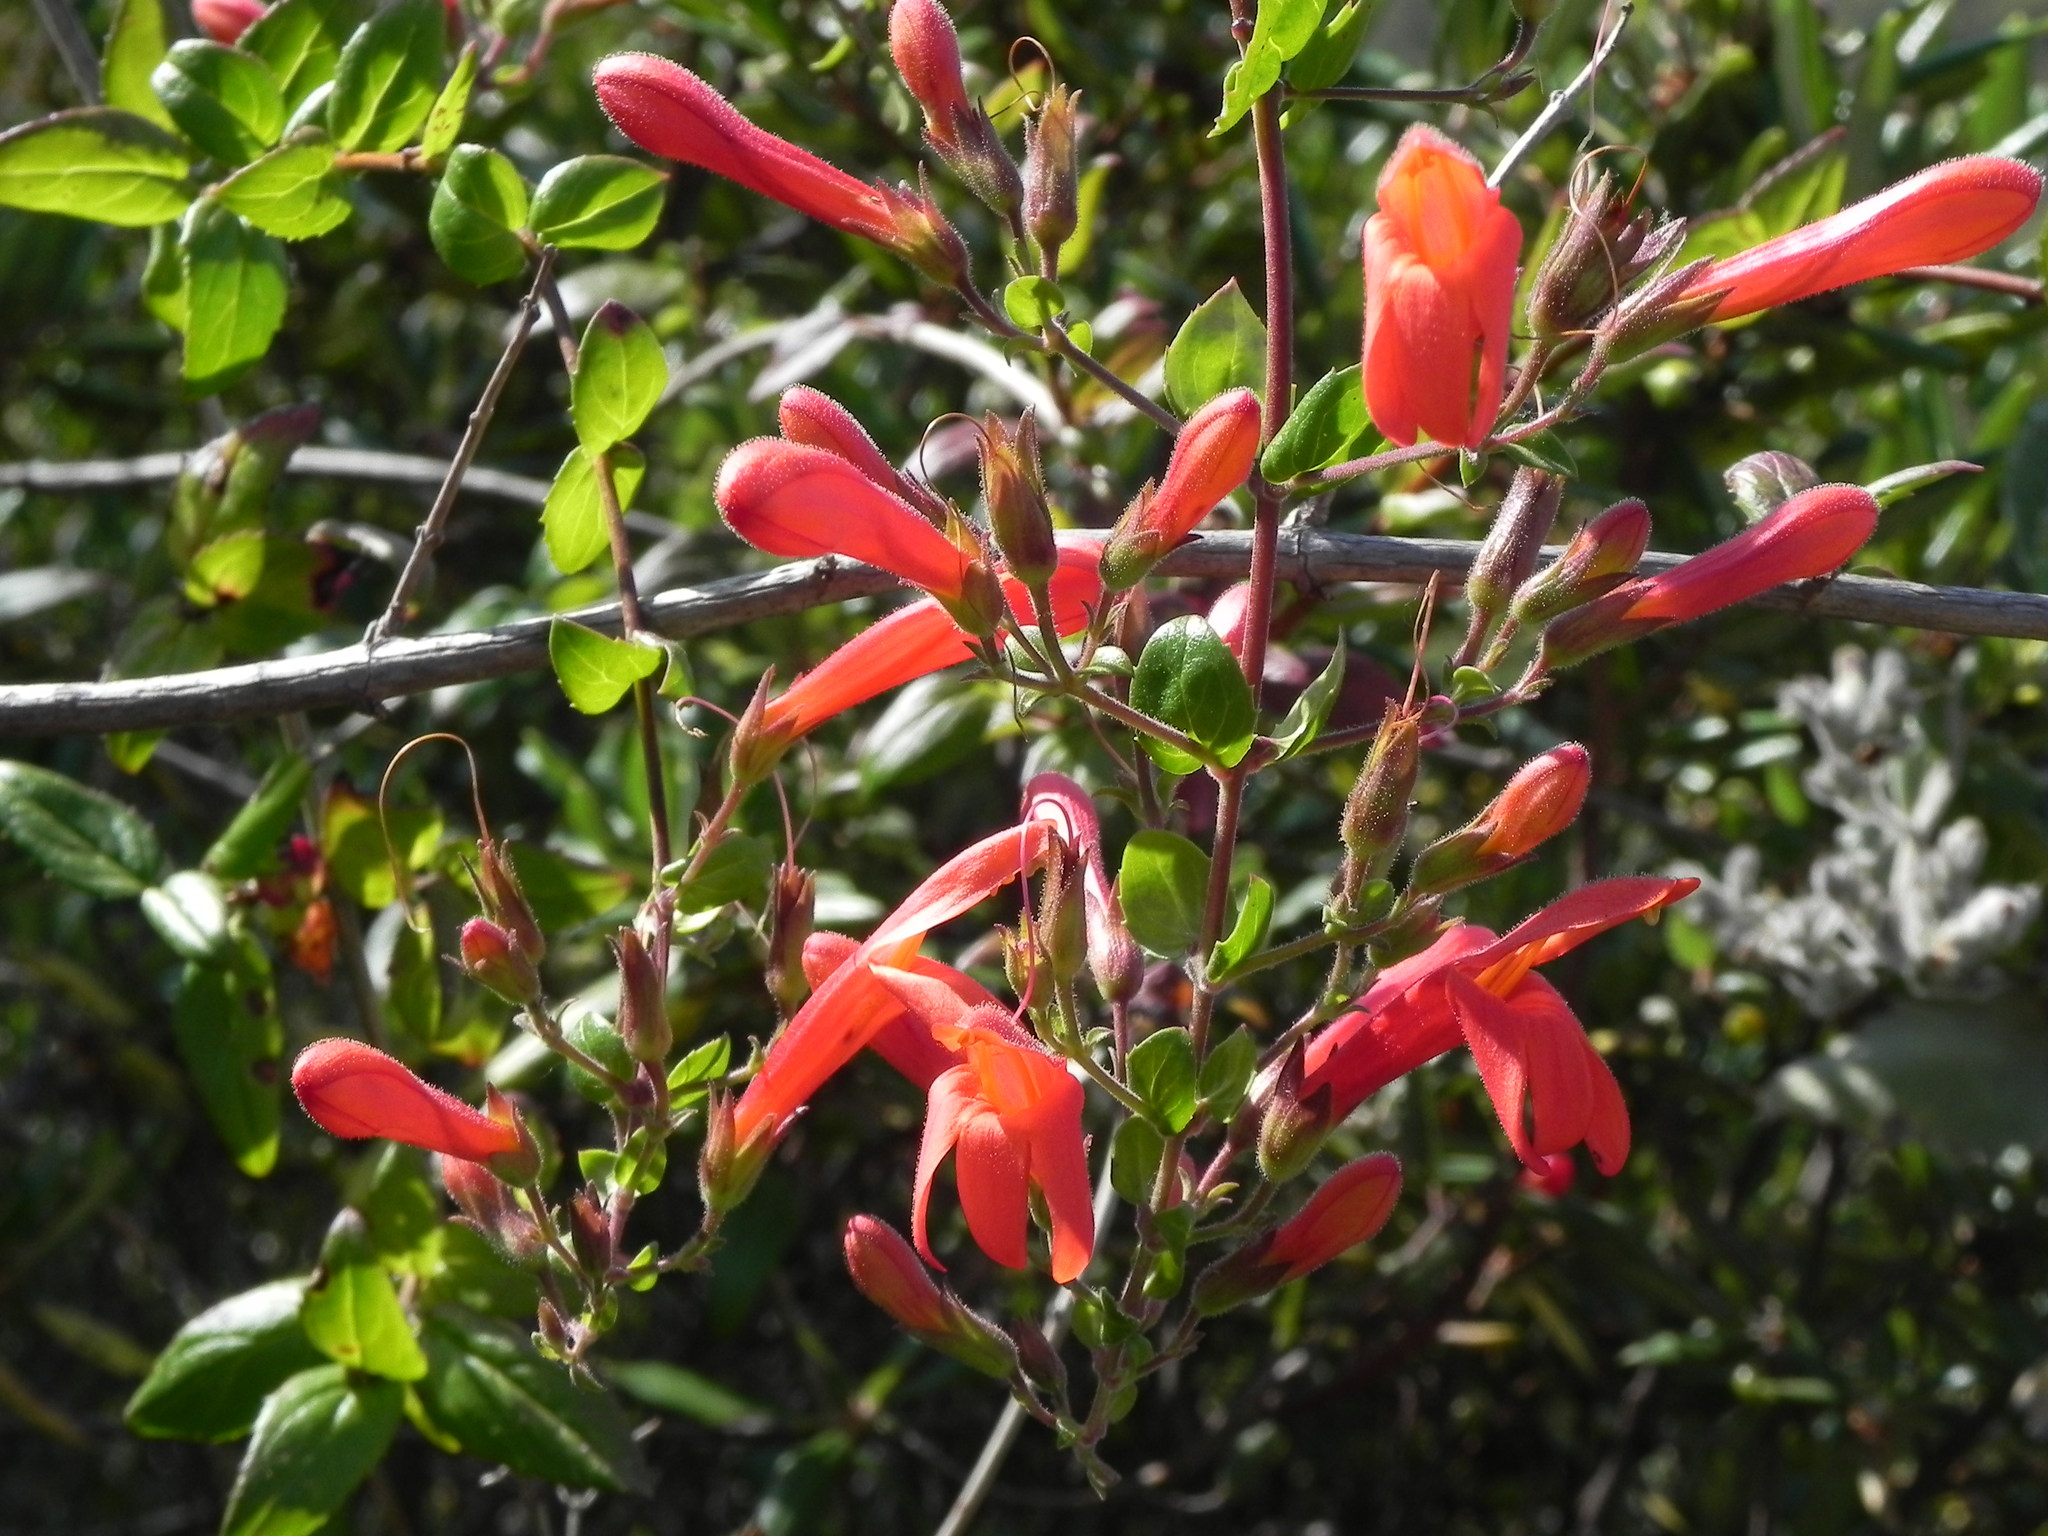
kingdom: Plantae
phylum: Tracheophyta
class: Magnoliopsida
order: Lamiales
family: Plantaginaceae
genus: Keckiella
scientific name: Keckiella cordifolia
